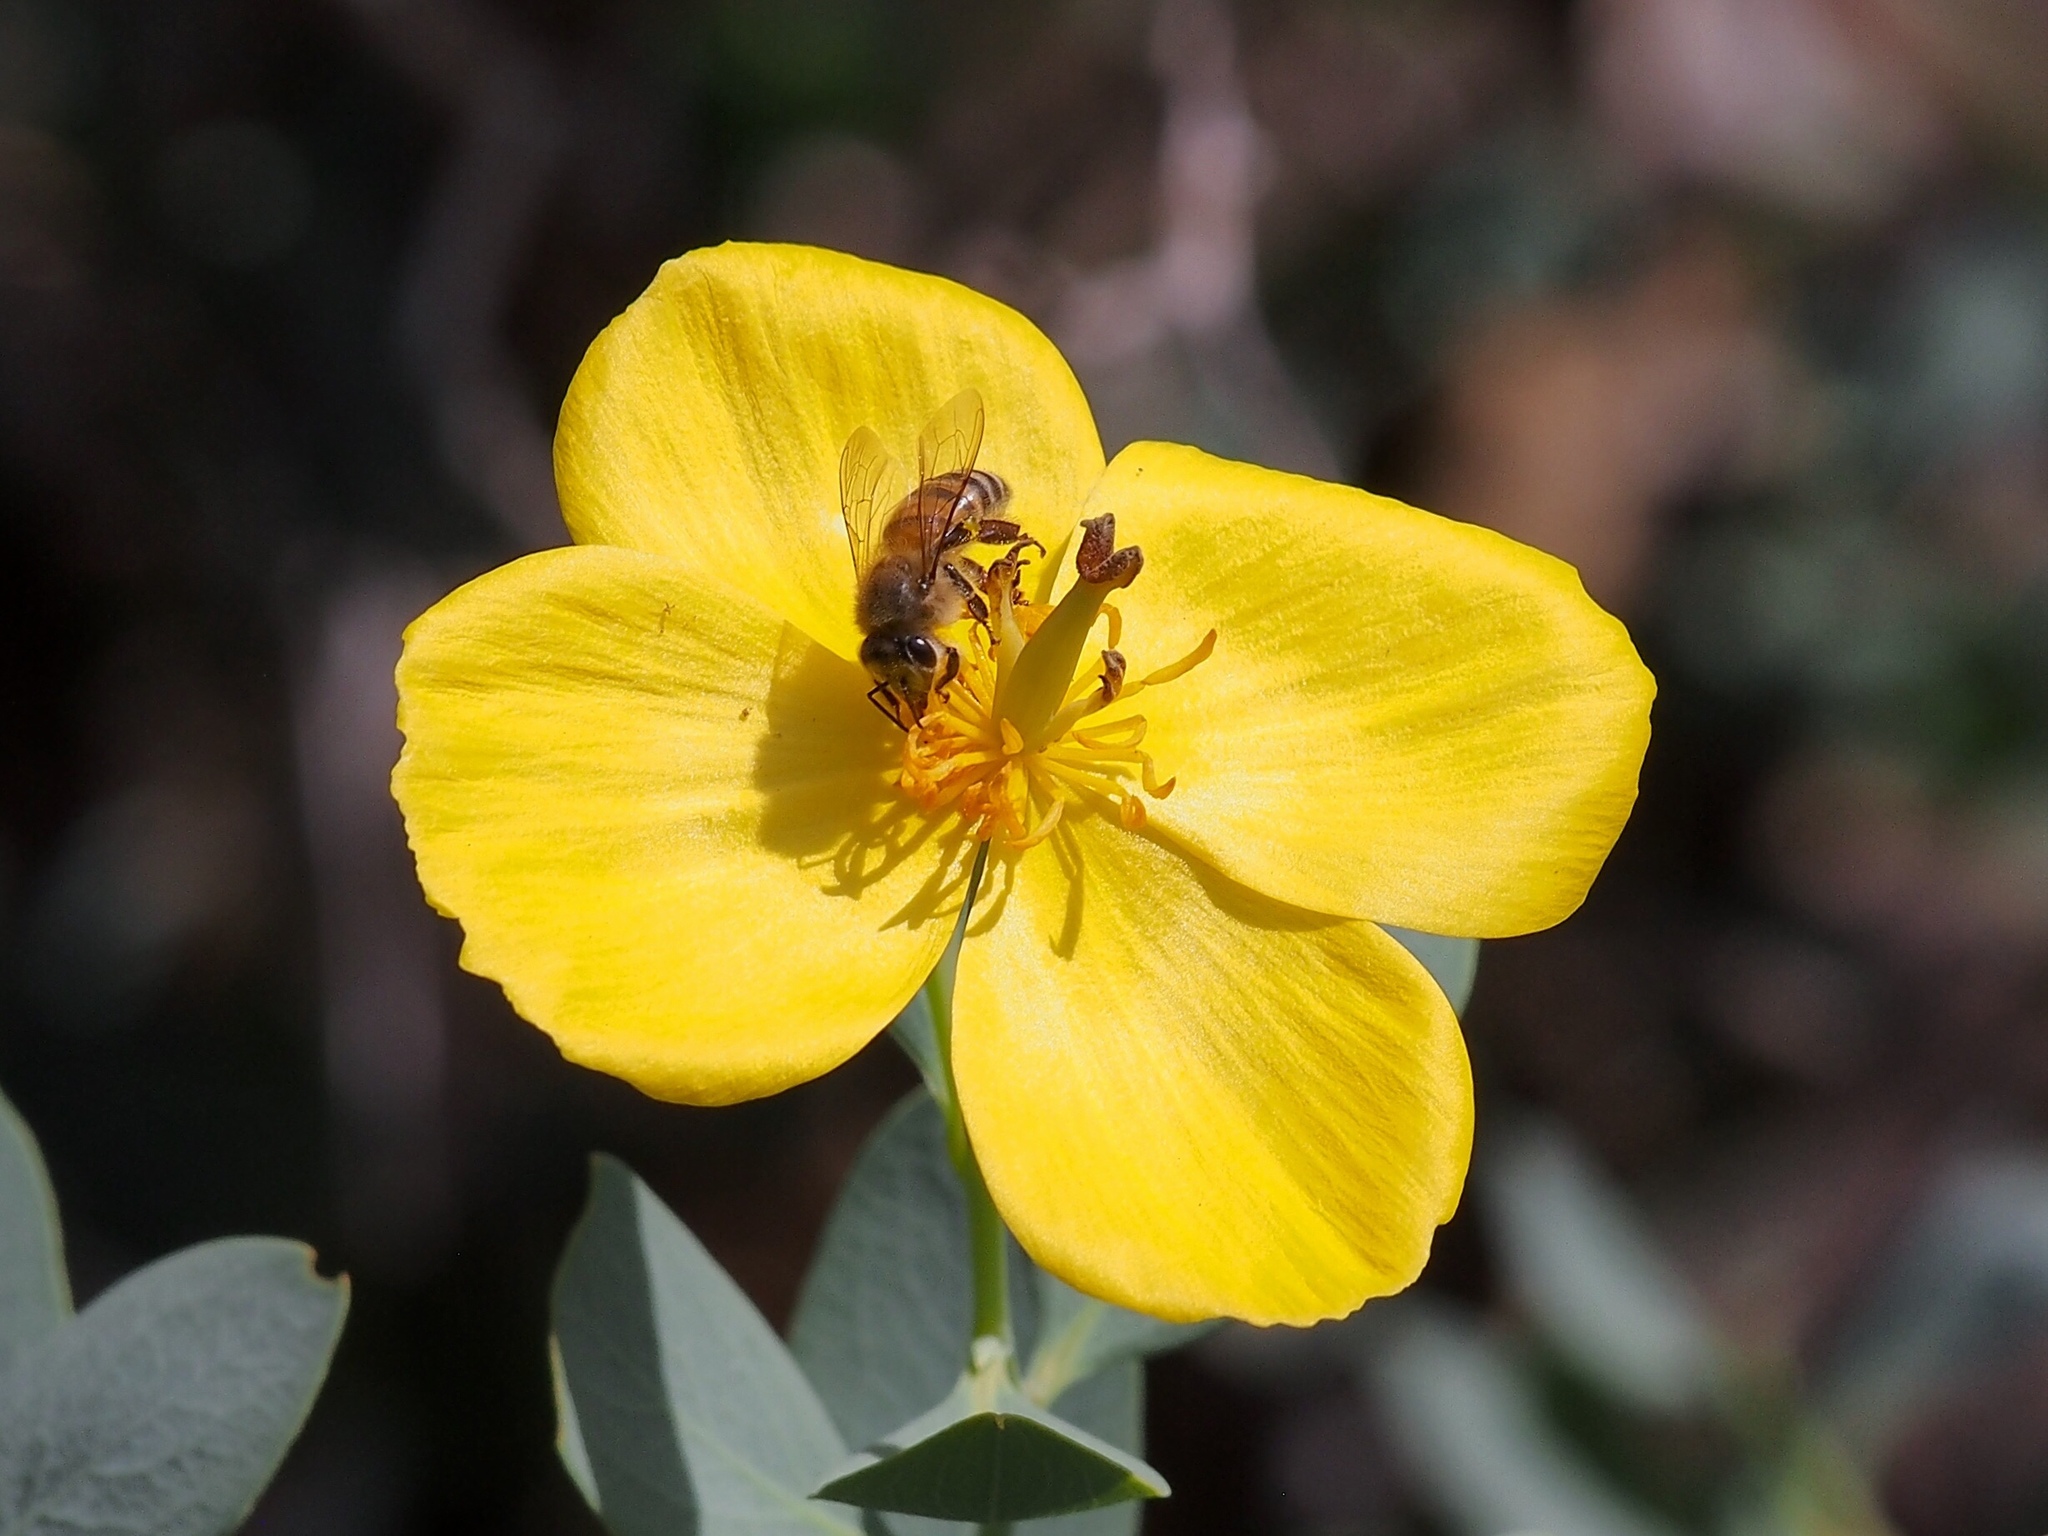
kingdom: Animalia
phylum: Arthropoda
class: Insecta
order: Hymenoptera
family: Apidae
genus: Apis
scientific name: Apis mellifera
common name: Honey bee
